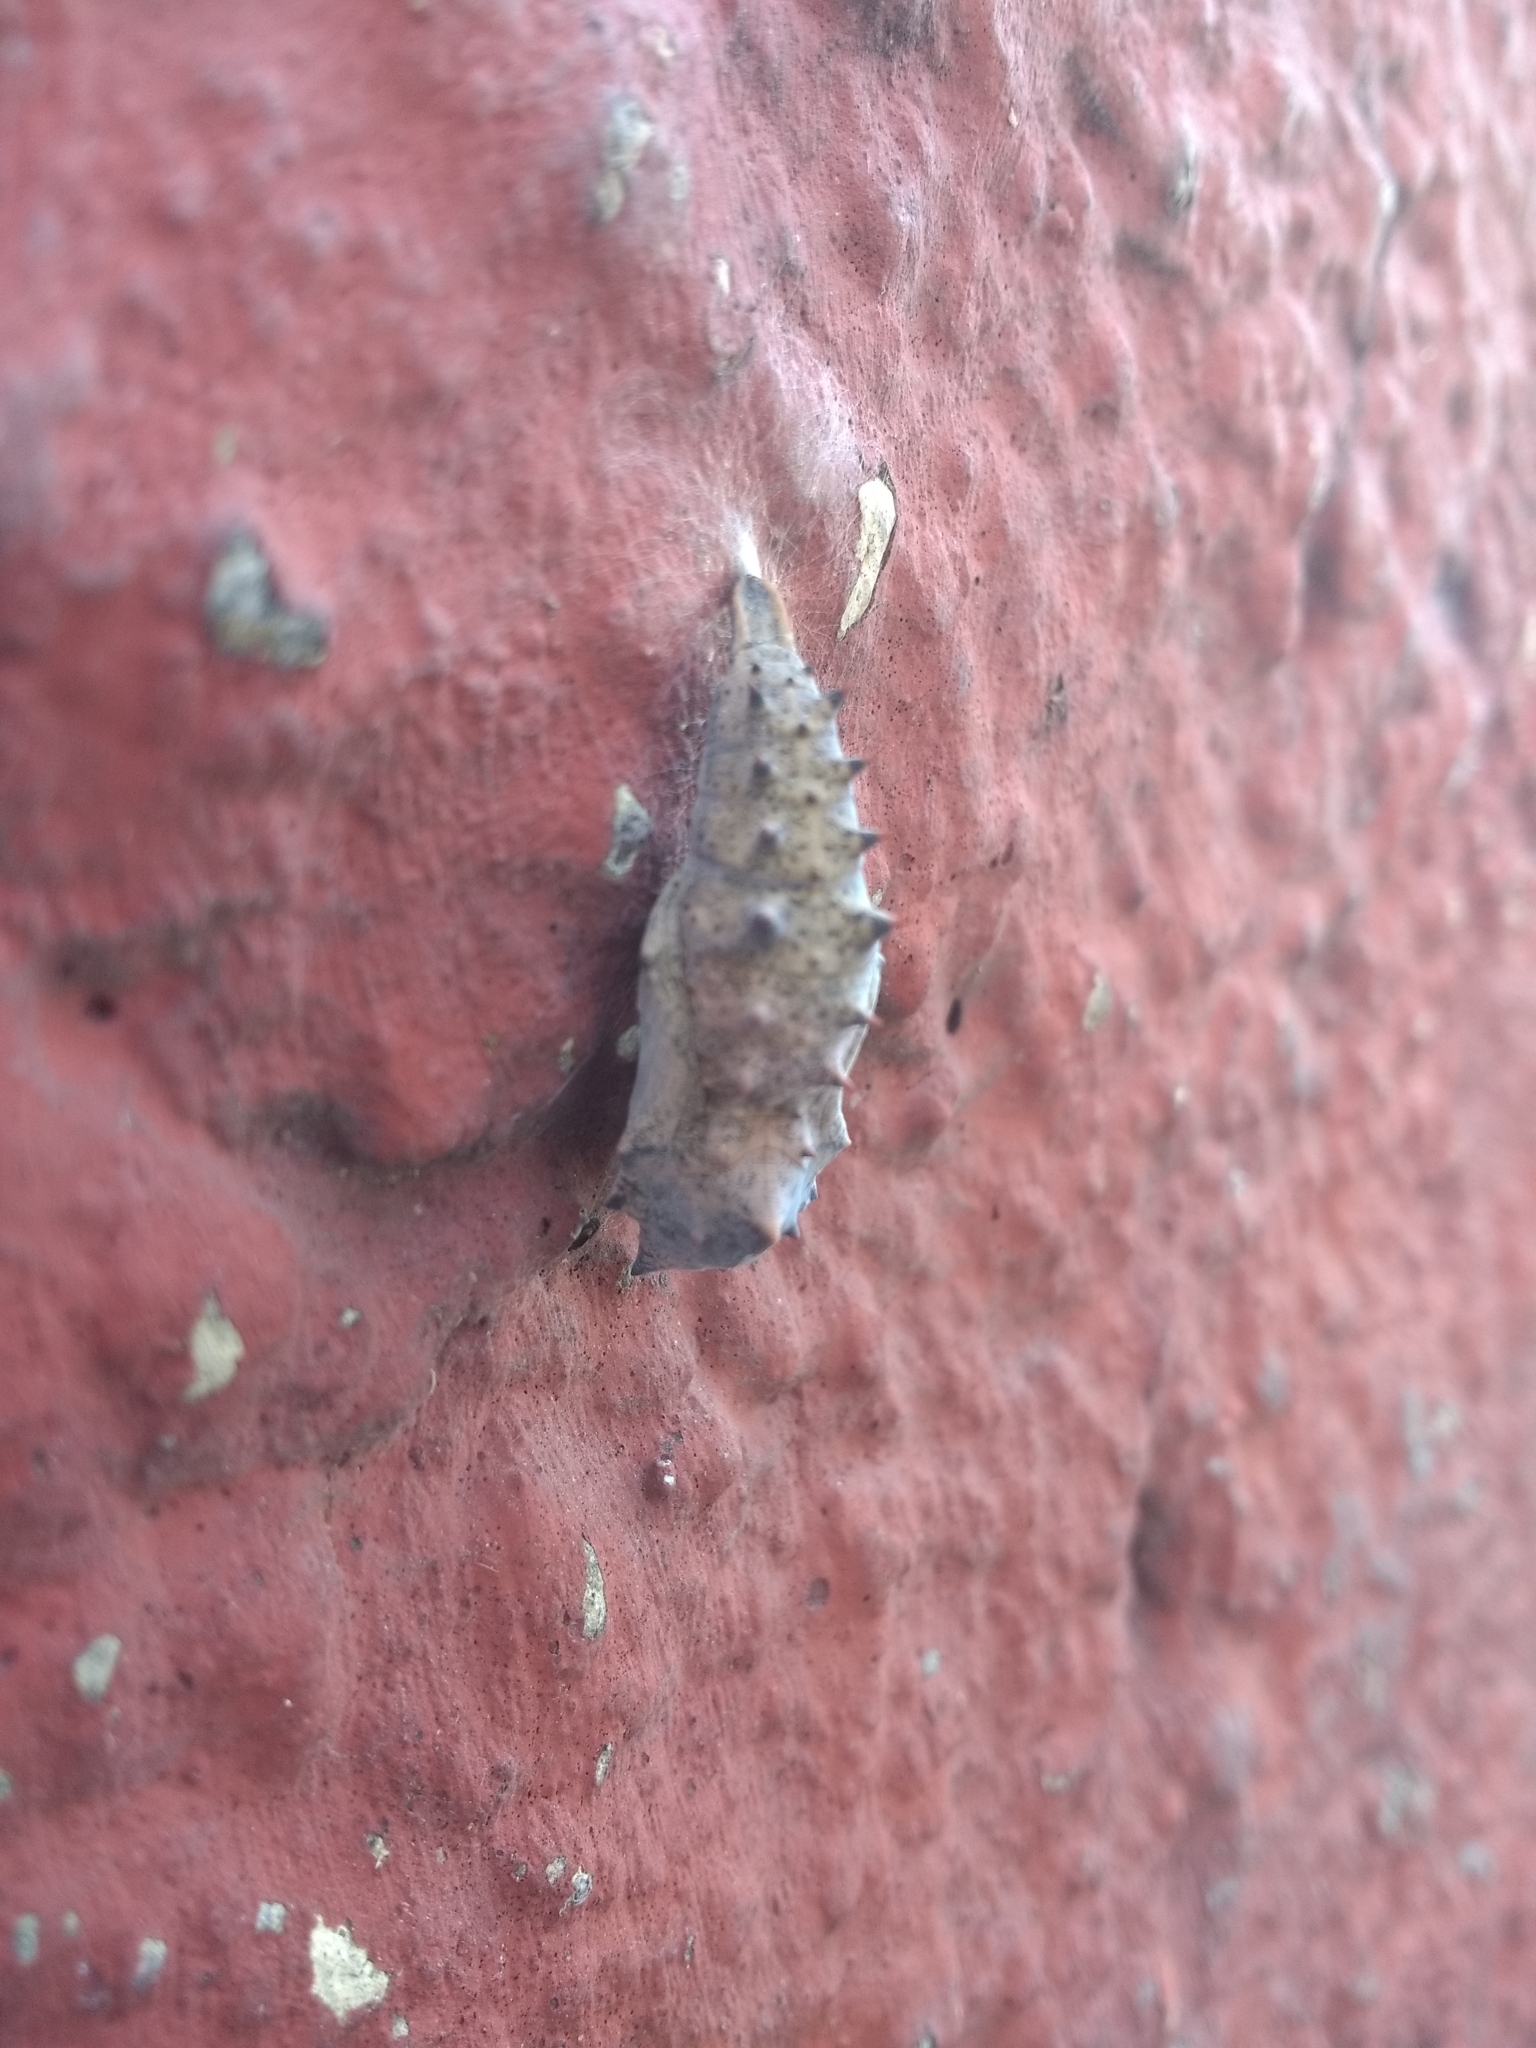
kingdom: Animalia
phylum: Arthropoda
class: Insecta
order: Lepidoptera
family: Nymphalidae
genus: Nymphalis
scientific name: Nymphalis antiopa
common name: Camberwell beauty
